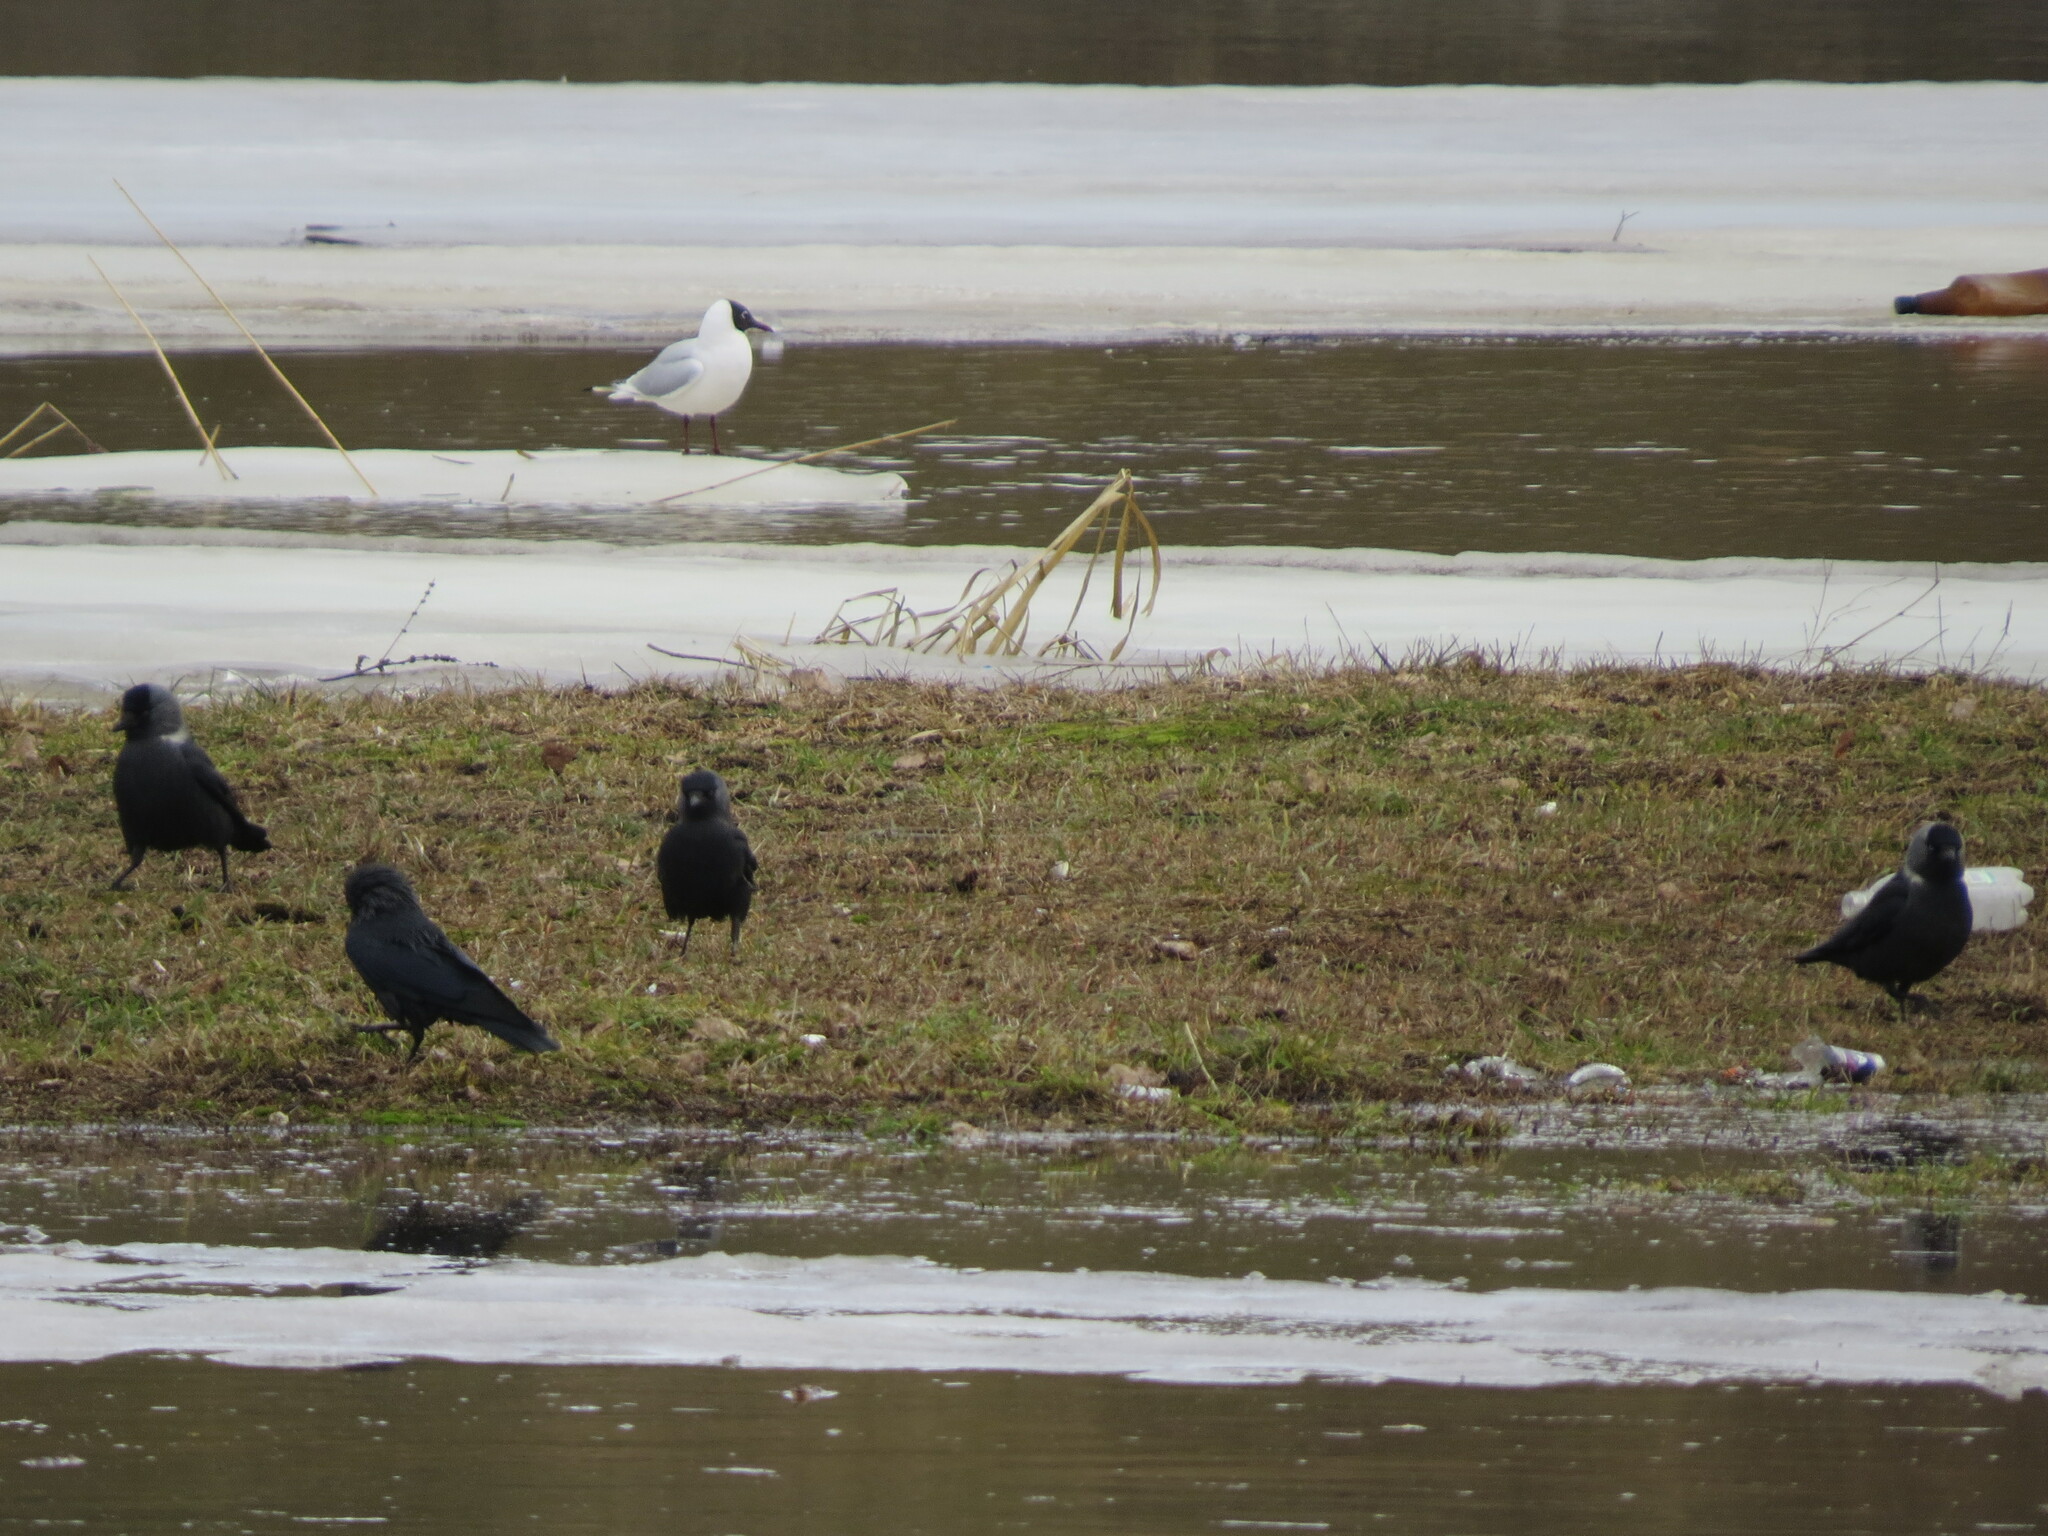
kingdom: Animalia
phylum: Chordata
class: Aves
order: Passeriformes
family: Corvidae
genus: Coloeus
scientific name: Coloeus monedula
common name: Western jackdaw
